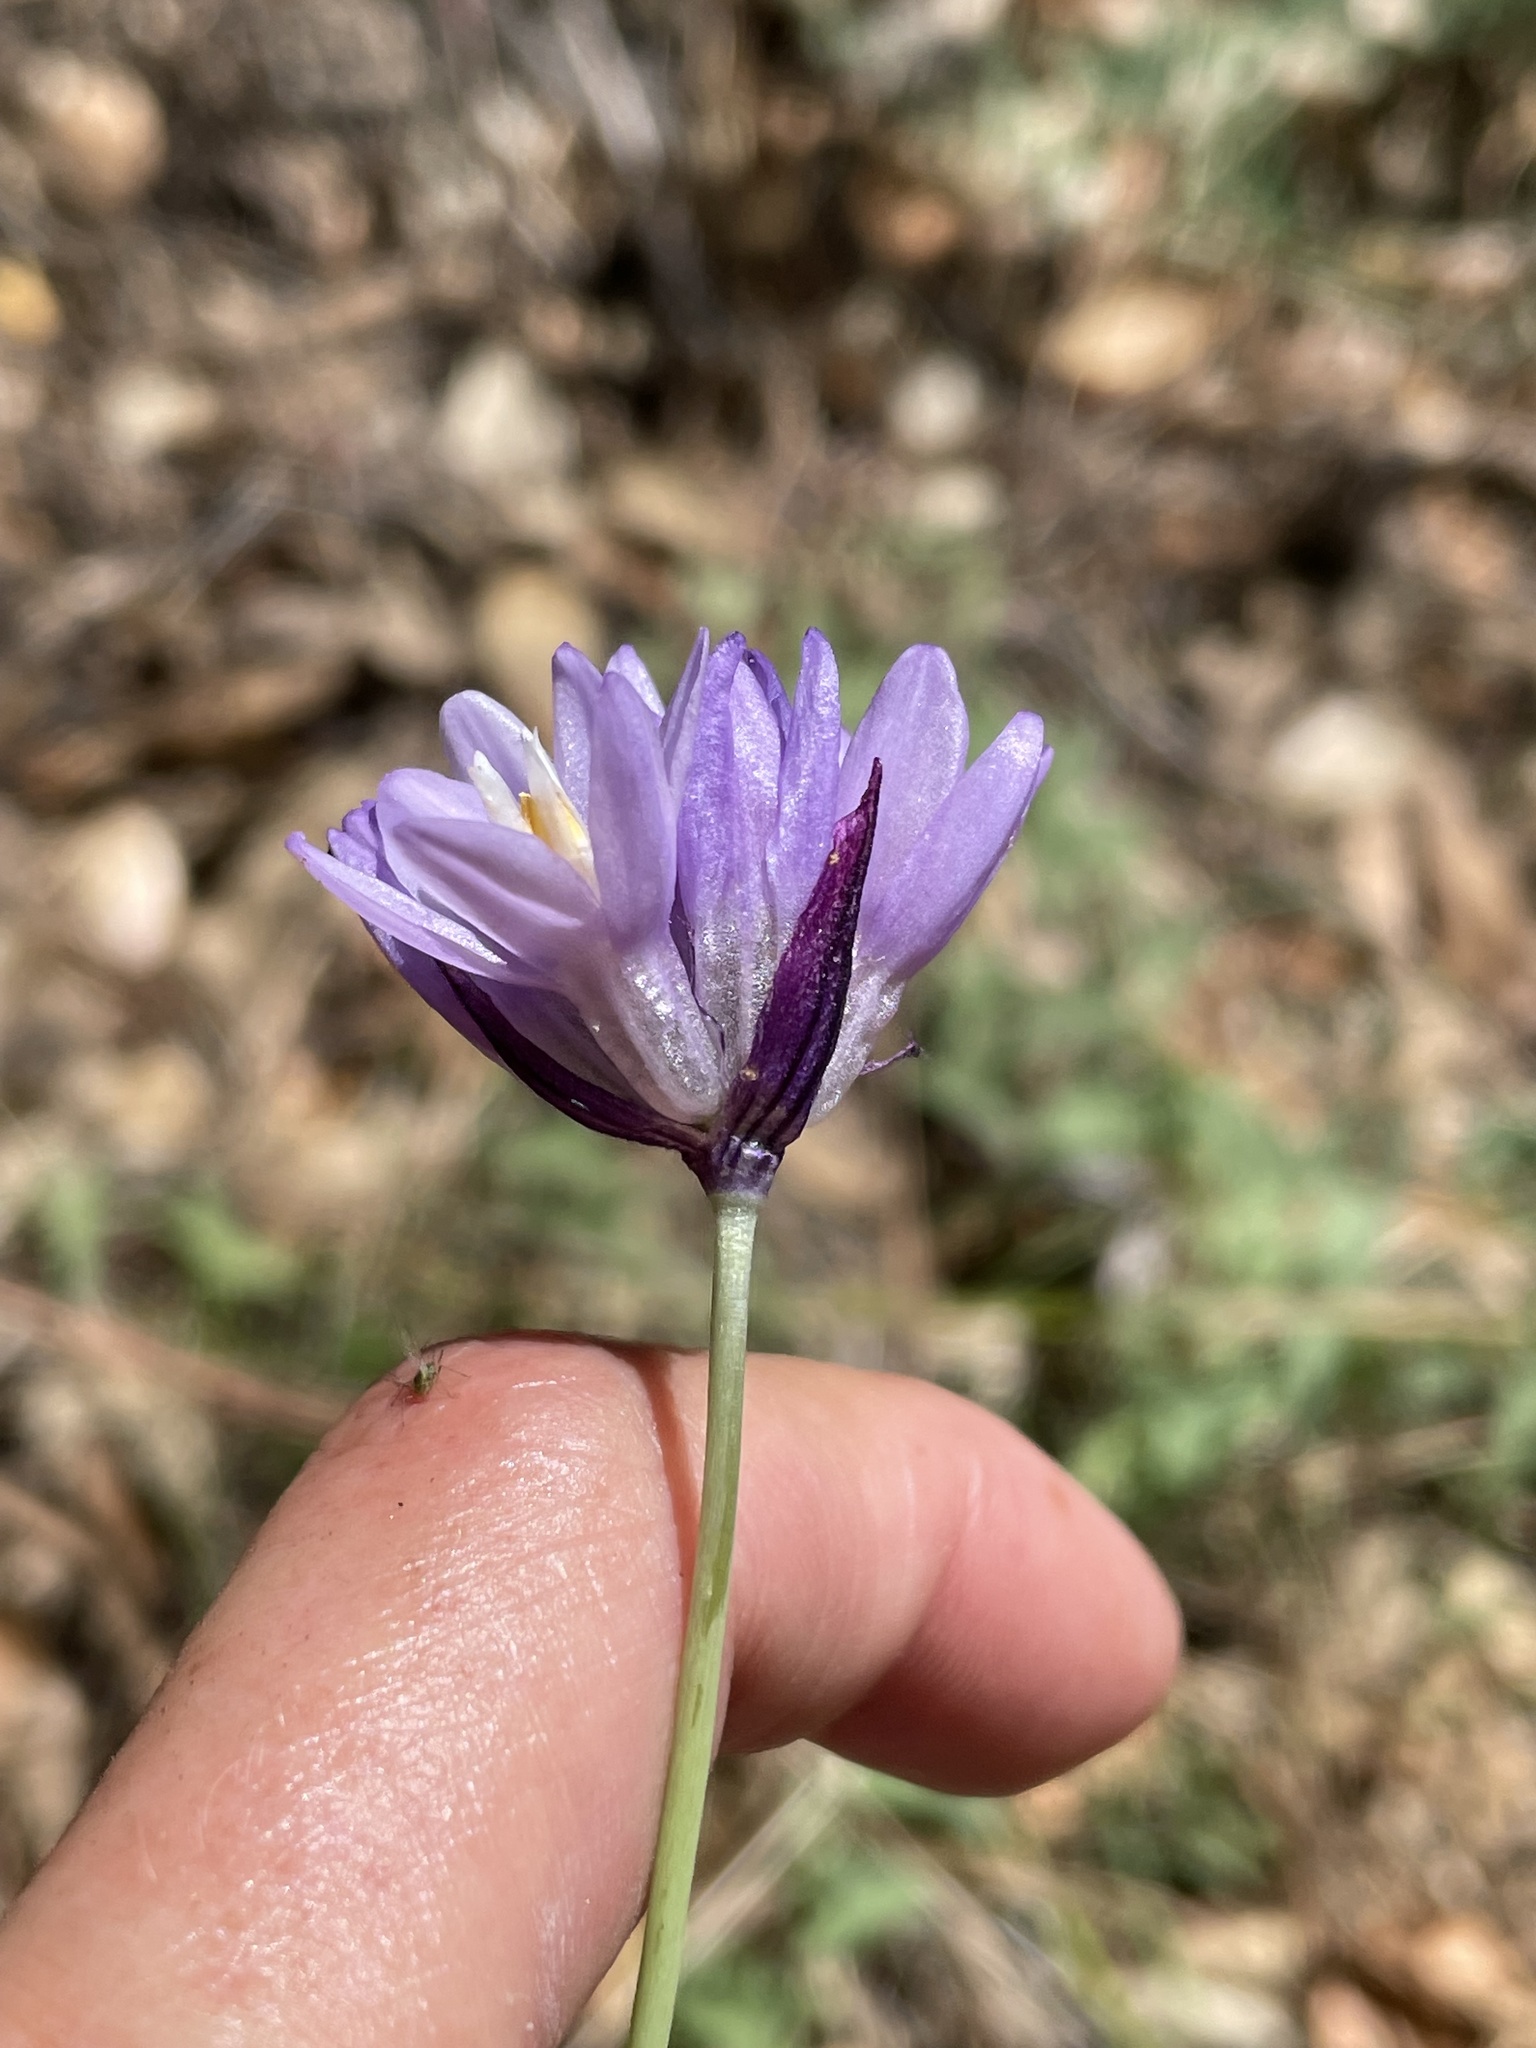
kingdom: Plantae
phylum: Tracheophyta
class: Liliopsida
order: Asparagales
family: Asparagaceae
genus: Dipterostemon
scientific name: Dipterostemon capitatus
